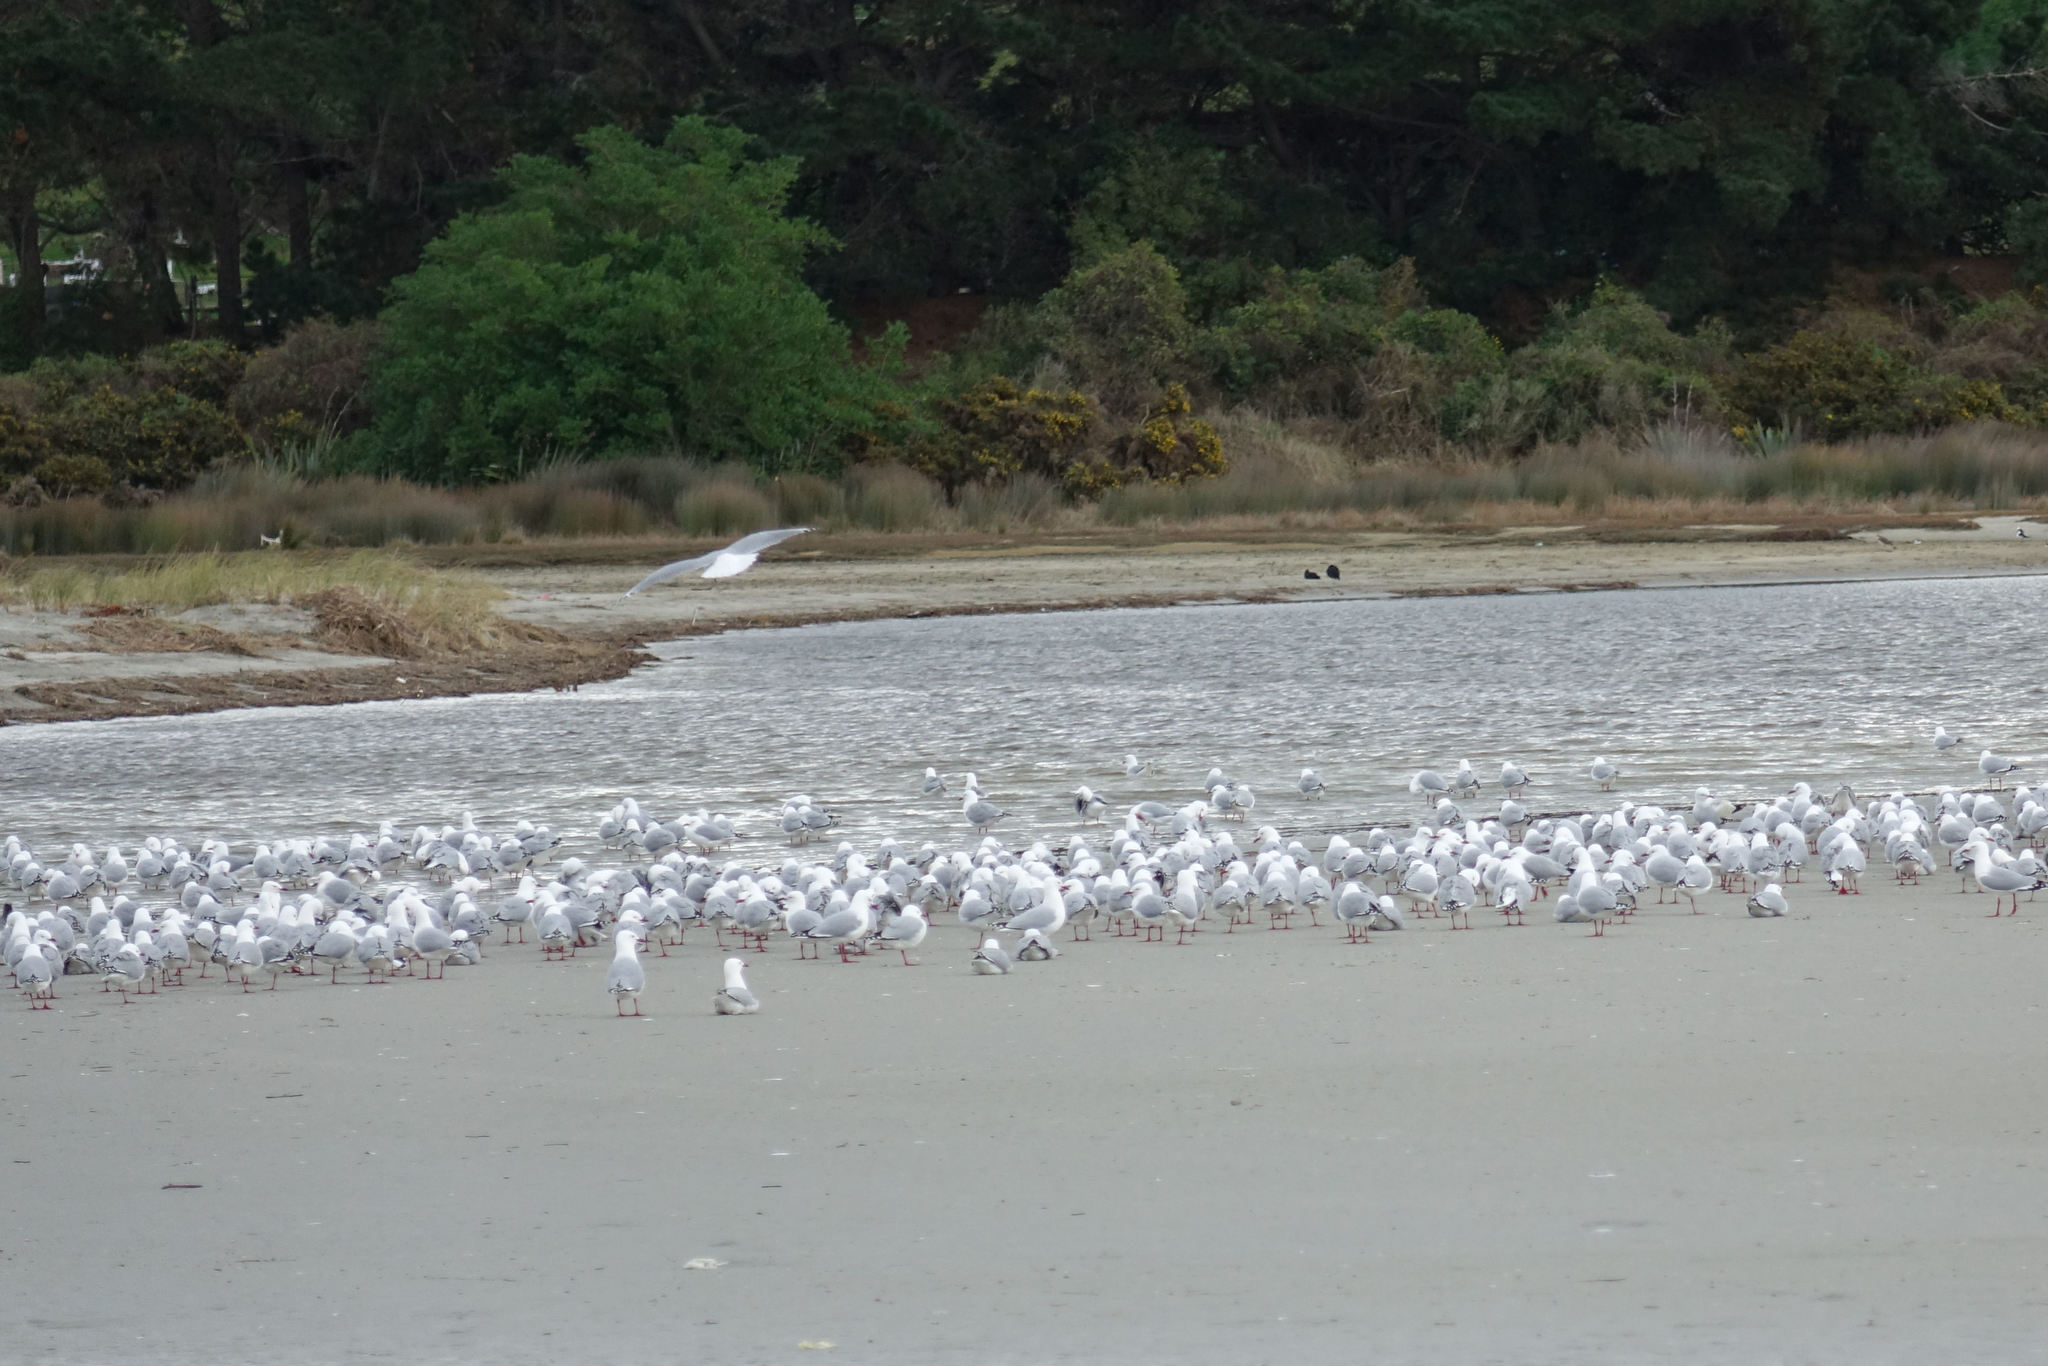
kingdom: Animalia
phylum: Chordata
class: Aves
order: Charadriiformes
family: Laridae
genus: Chroicocephalus
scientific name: Chroicocephalus novaehollandiae
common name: Silver gull
